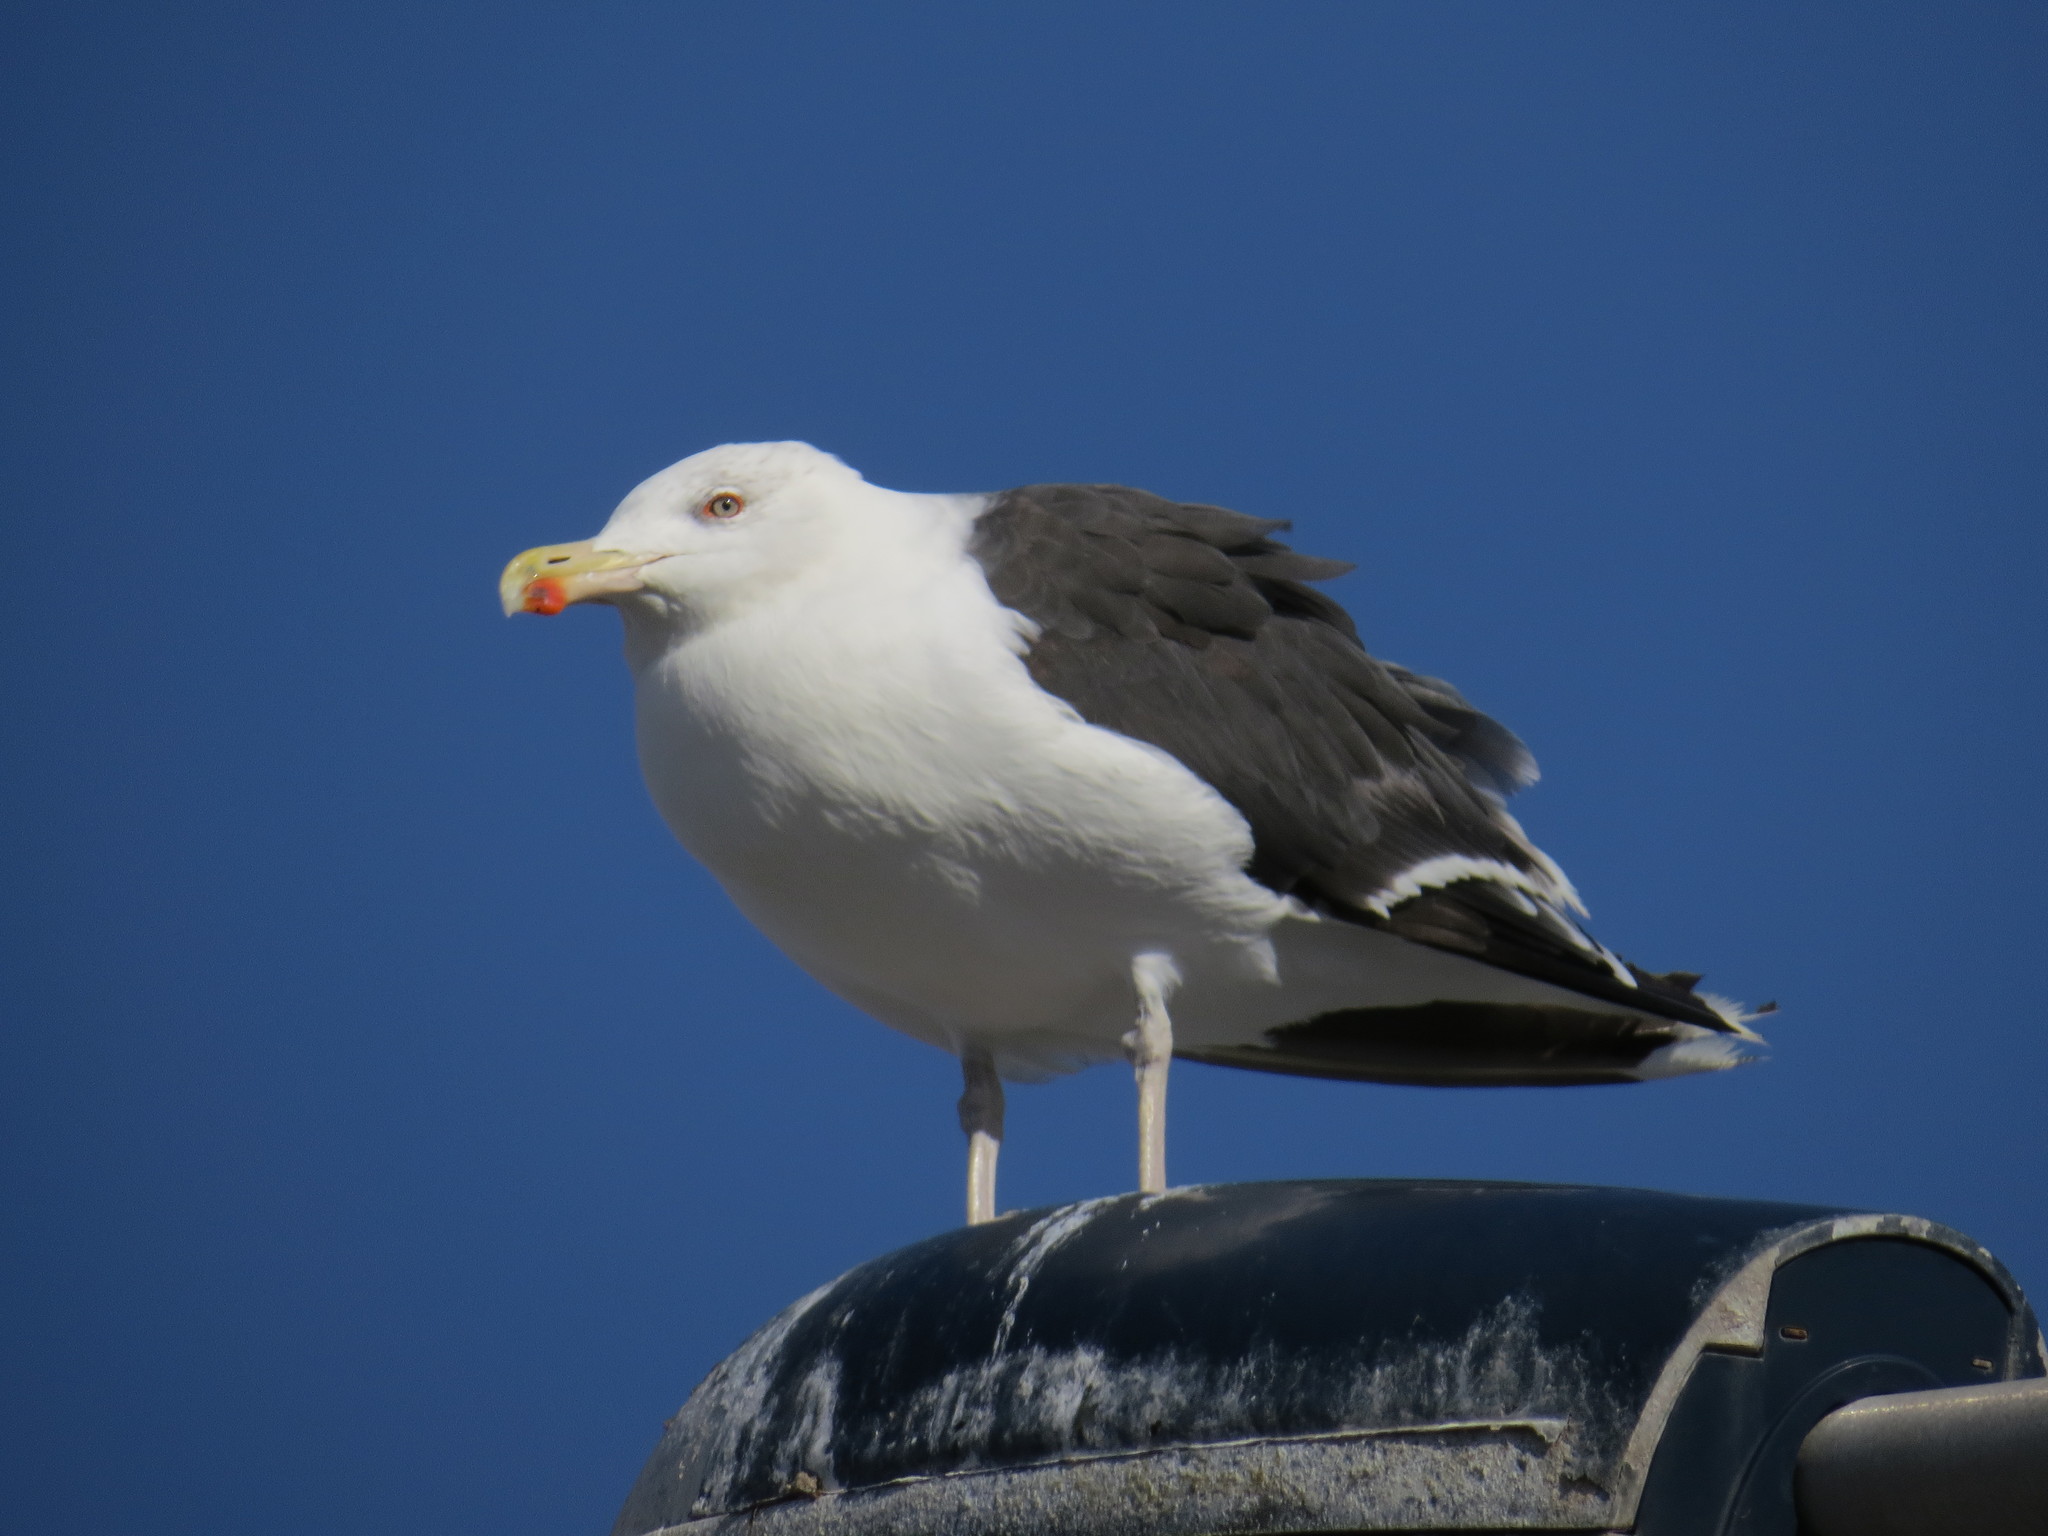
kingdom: Animalia
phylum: Chordata
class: Aves
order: Charadriiformes
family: Laridae
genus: Larus
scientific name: Larus marinus
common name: Great black-backed gull
